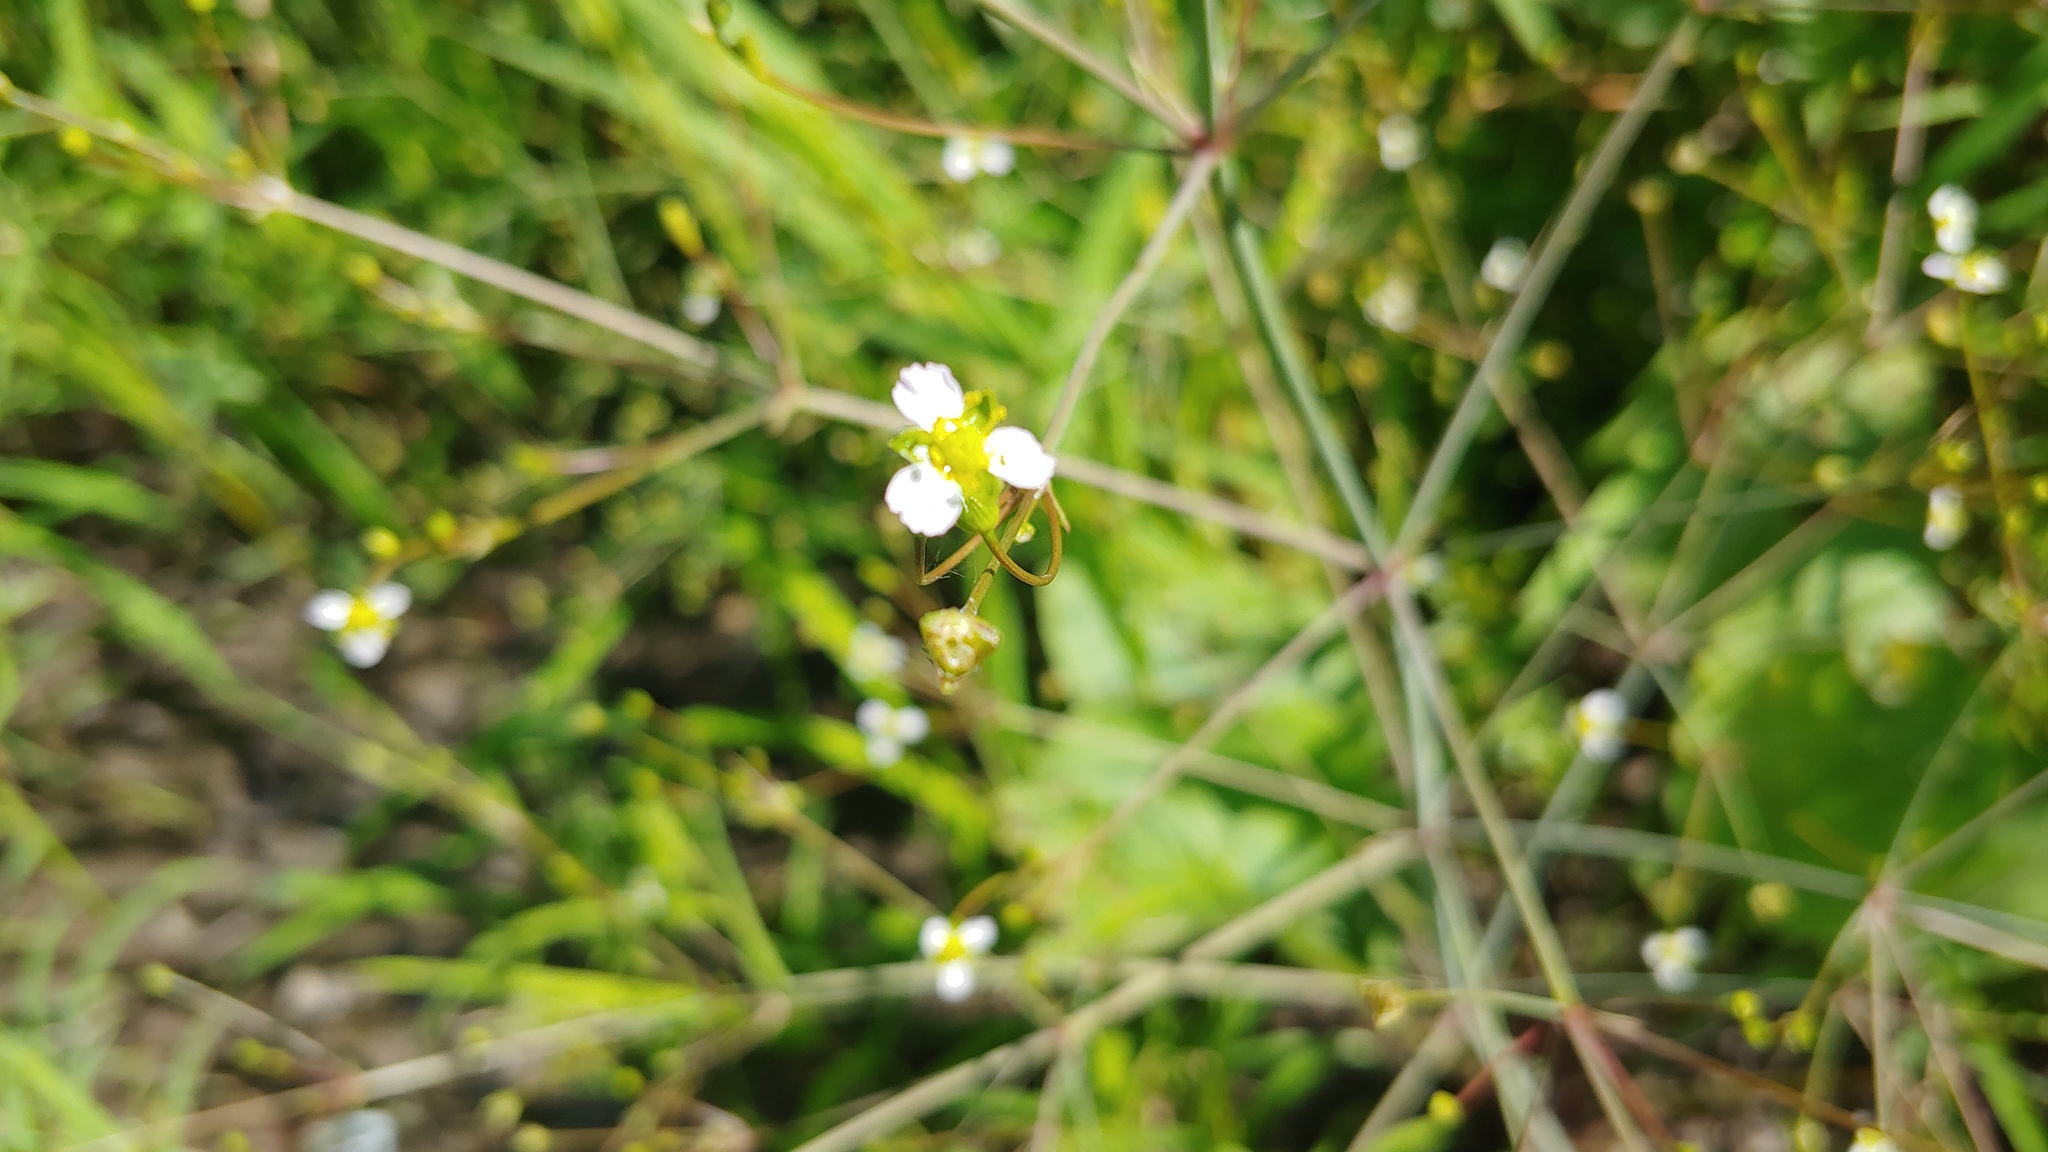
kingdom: Plantae
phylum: Tracheophyta
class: Liliopsida
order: Alismatales
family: Alismataceae
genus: Alisma
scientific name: Alisma triviale
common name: Northern water-plantain
